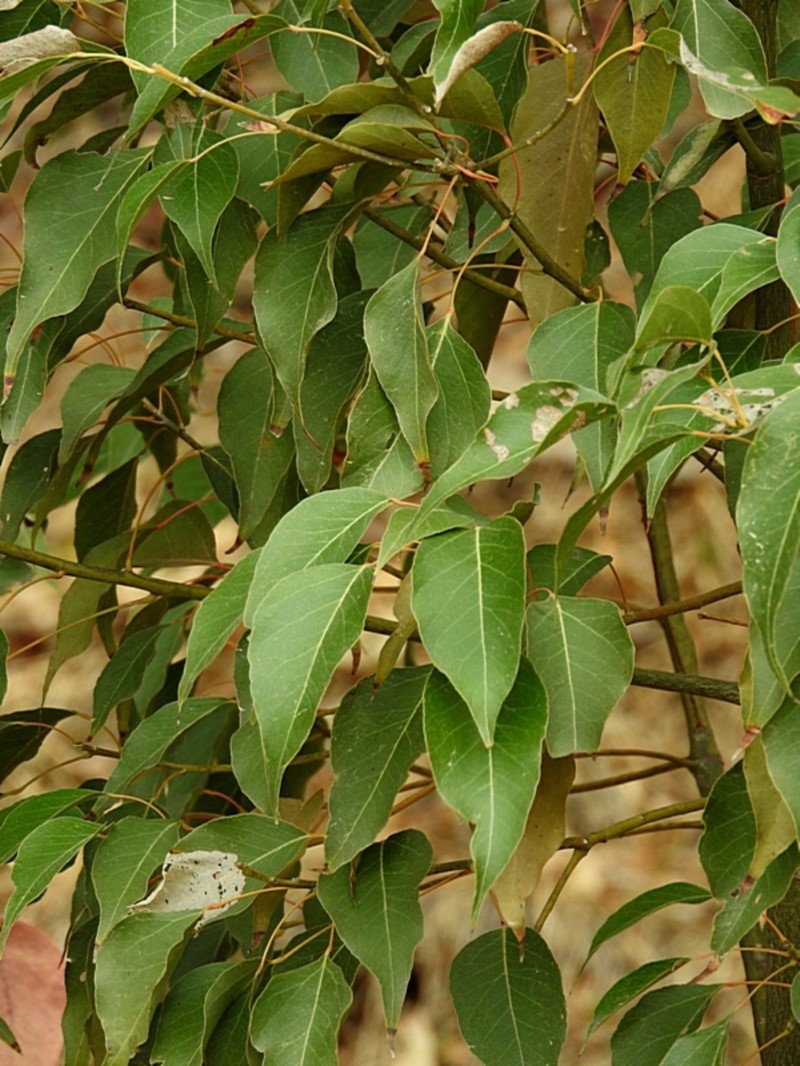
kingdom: Plantae
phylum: Tracheophyta
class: Magnoliopsida
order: Malvales
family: Malvaceae
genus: Brachychiton
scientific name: Brachychiton populneus
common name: Kurrajong
